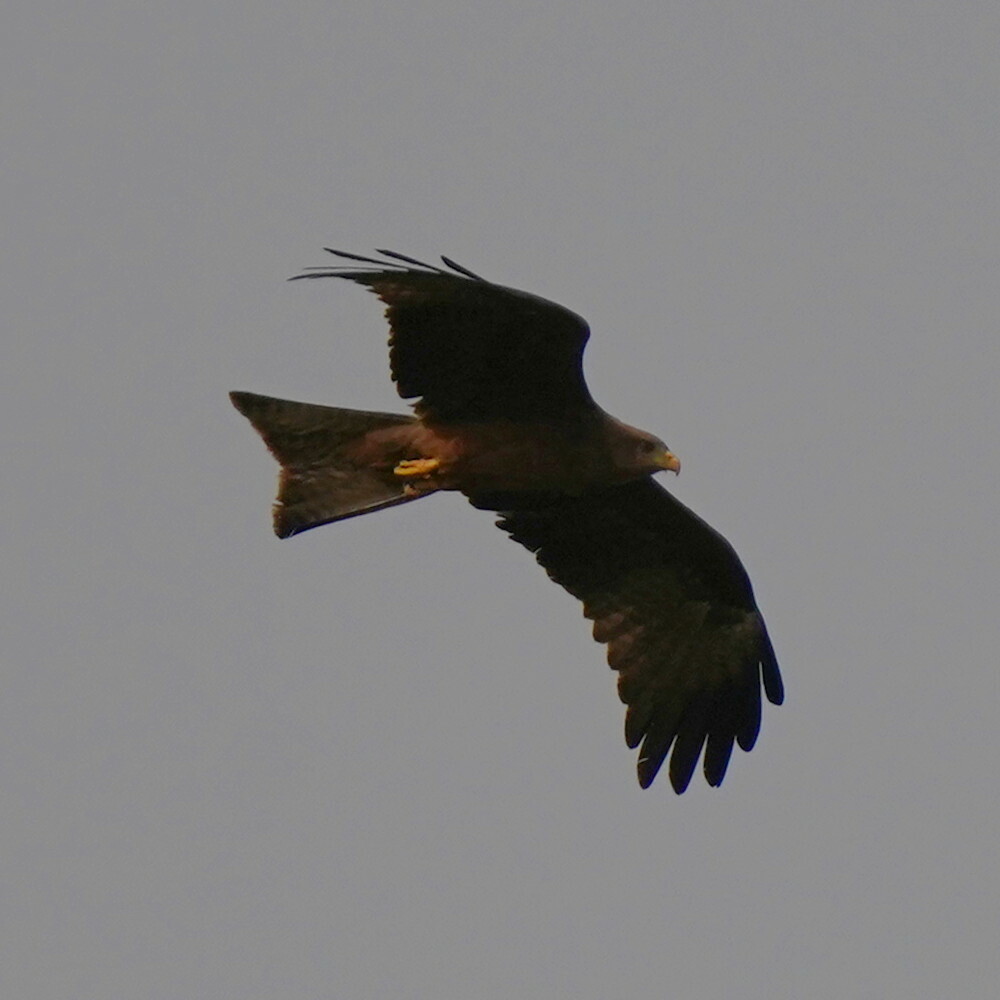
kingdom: Animalia
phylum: Chordata
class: Aves
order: Accipitriformes
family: Accipitridae
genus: Milvus
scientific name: Milvus migrans
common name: Black kite
